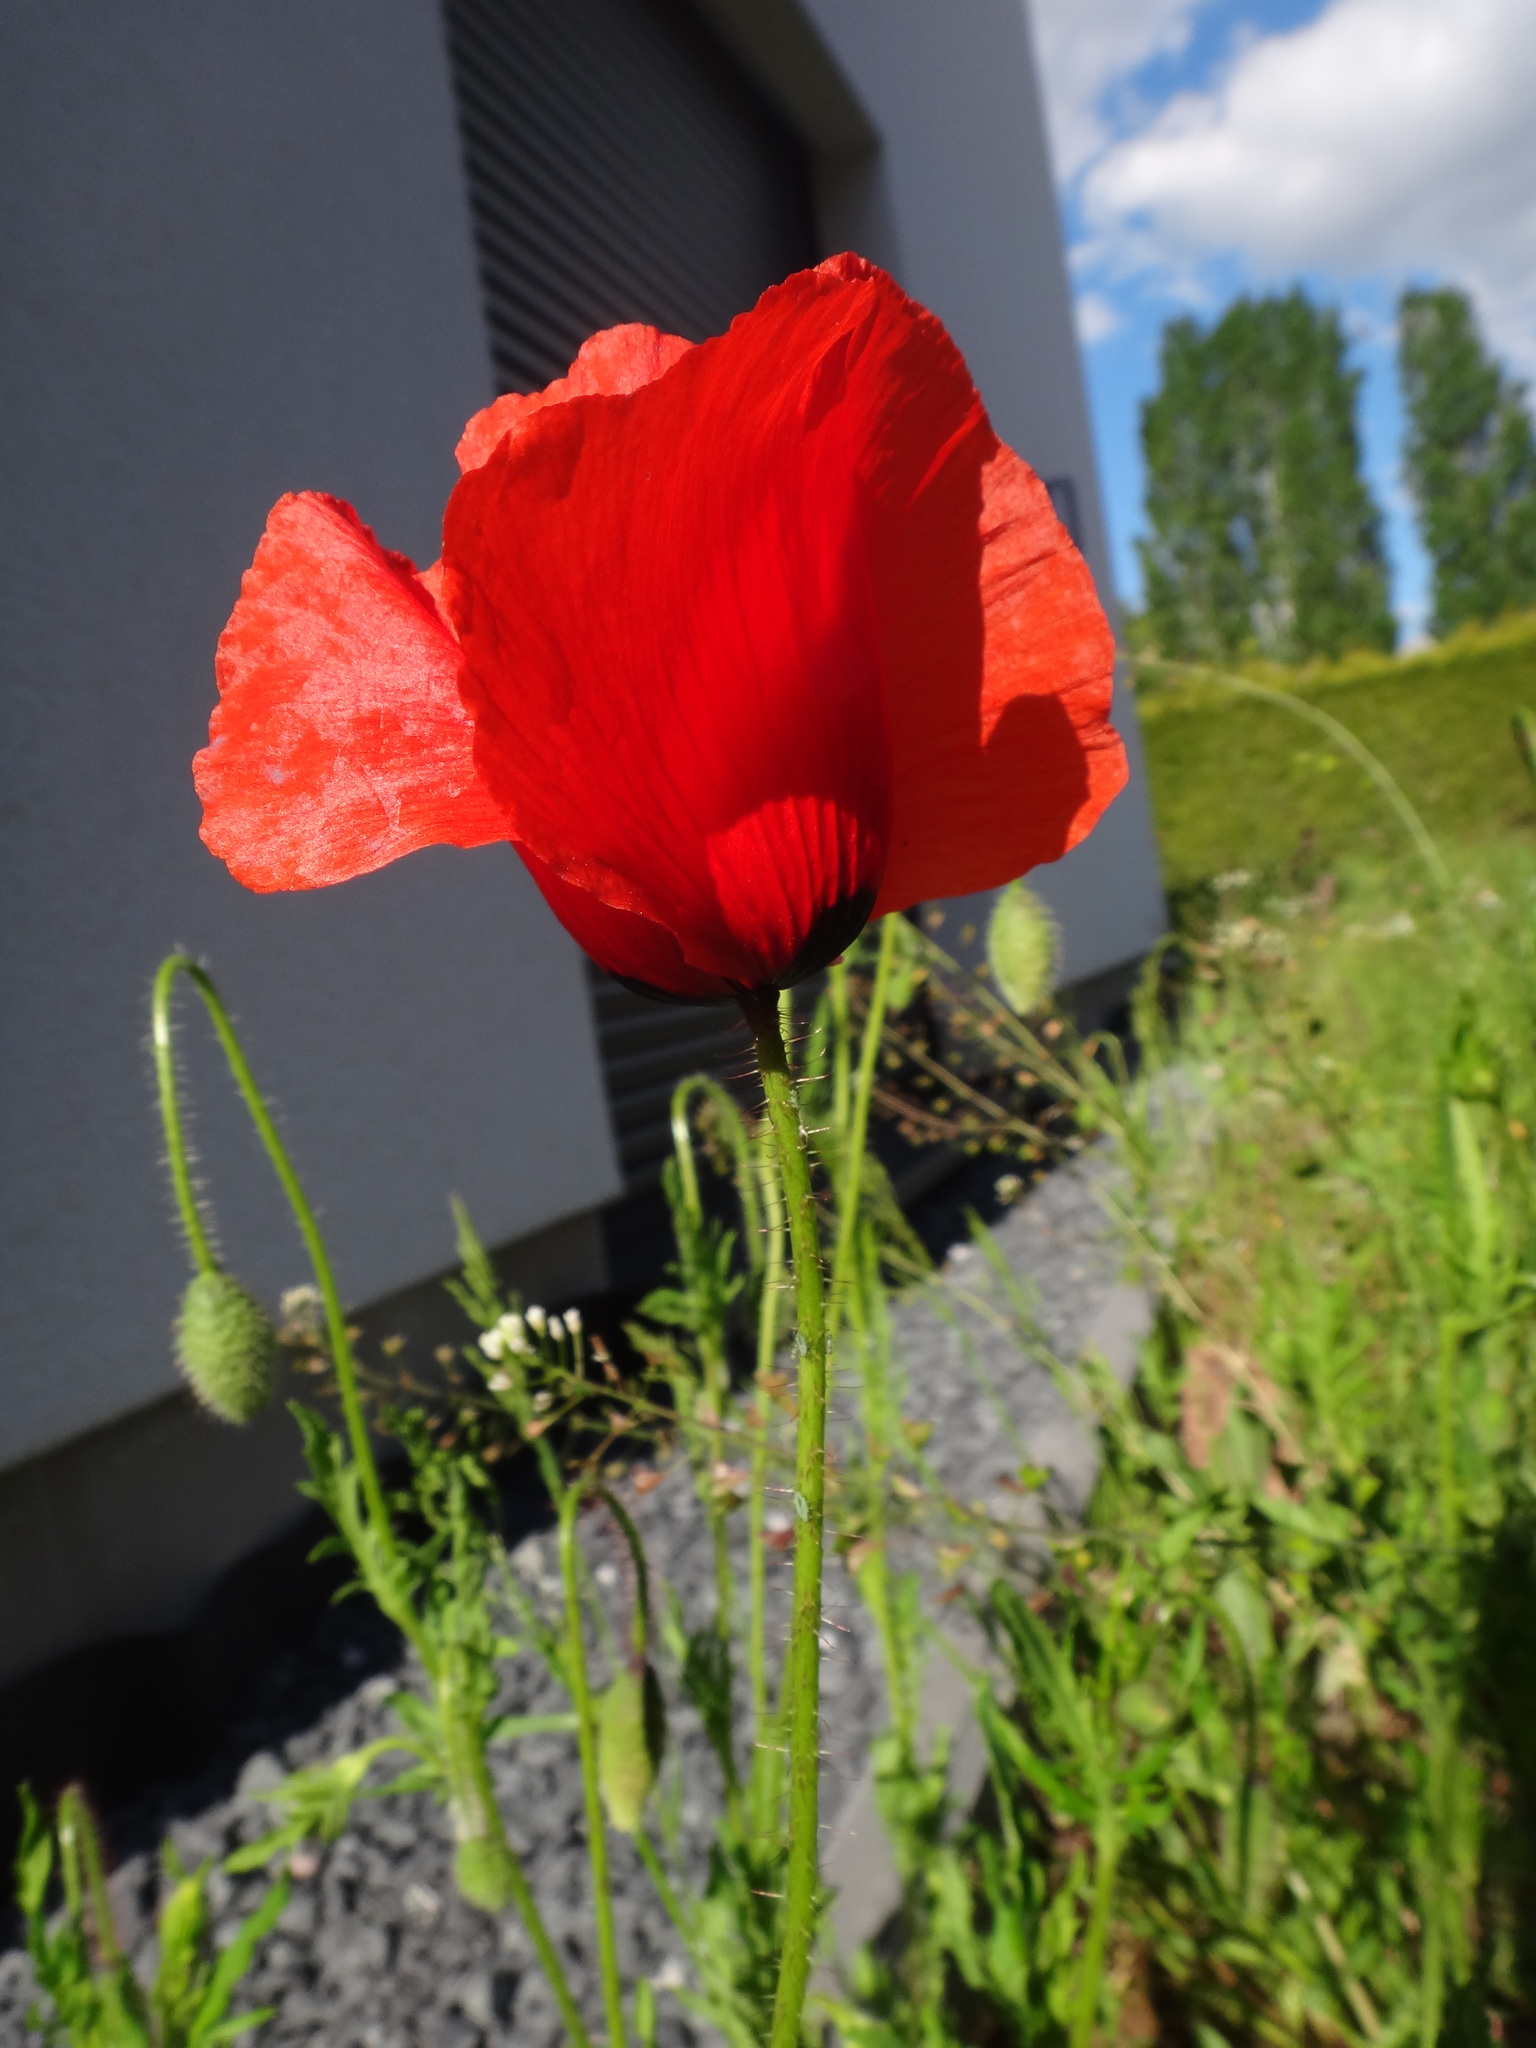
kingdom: Plantae
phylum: Tracheophyta
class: Magnoliopsida
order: Ranunculales
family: Papaveraceae
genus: Papaver
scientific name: Papaver rhoeas
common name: Corn poppy
